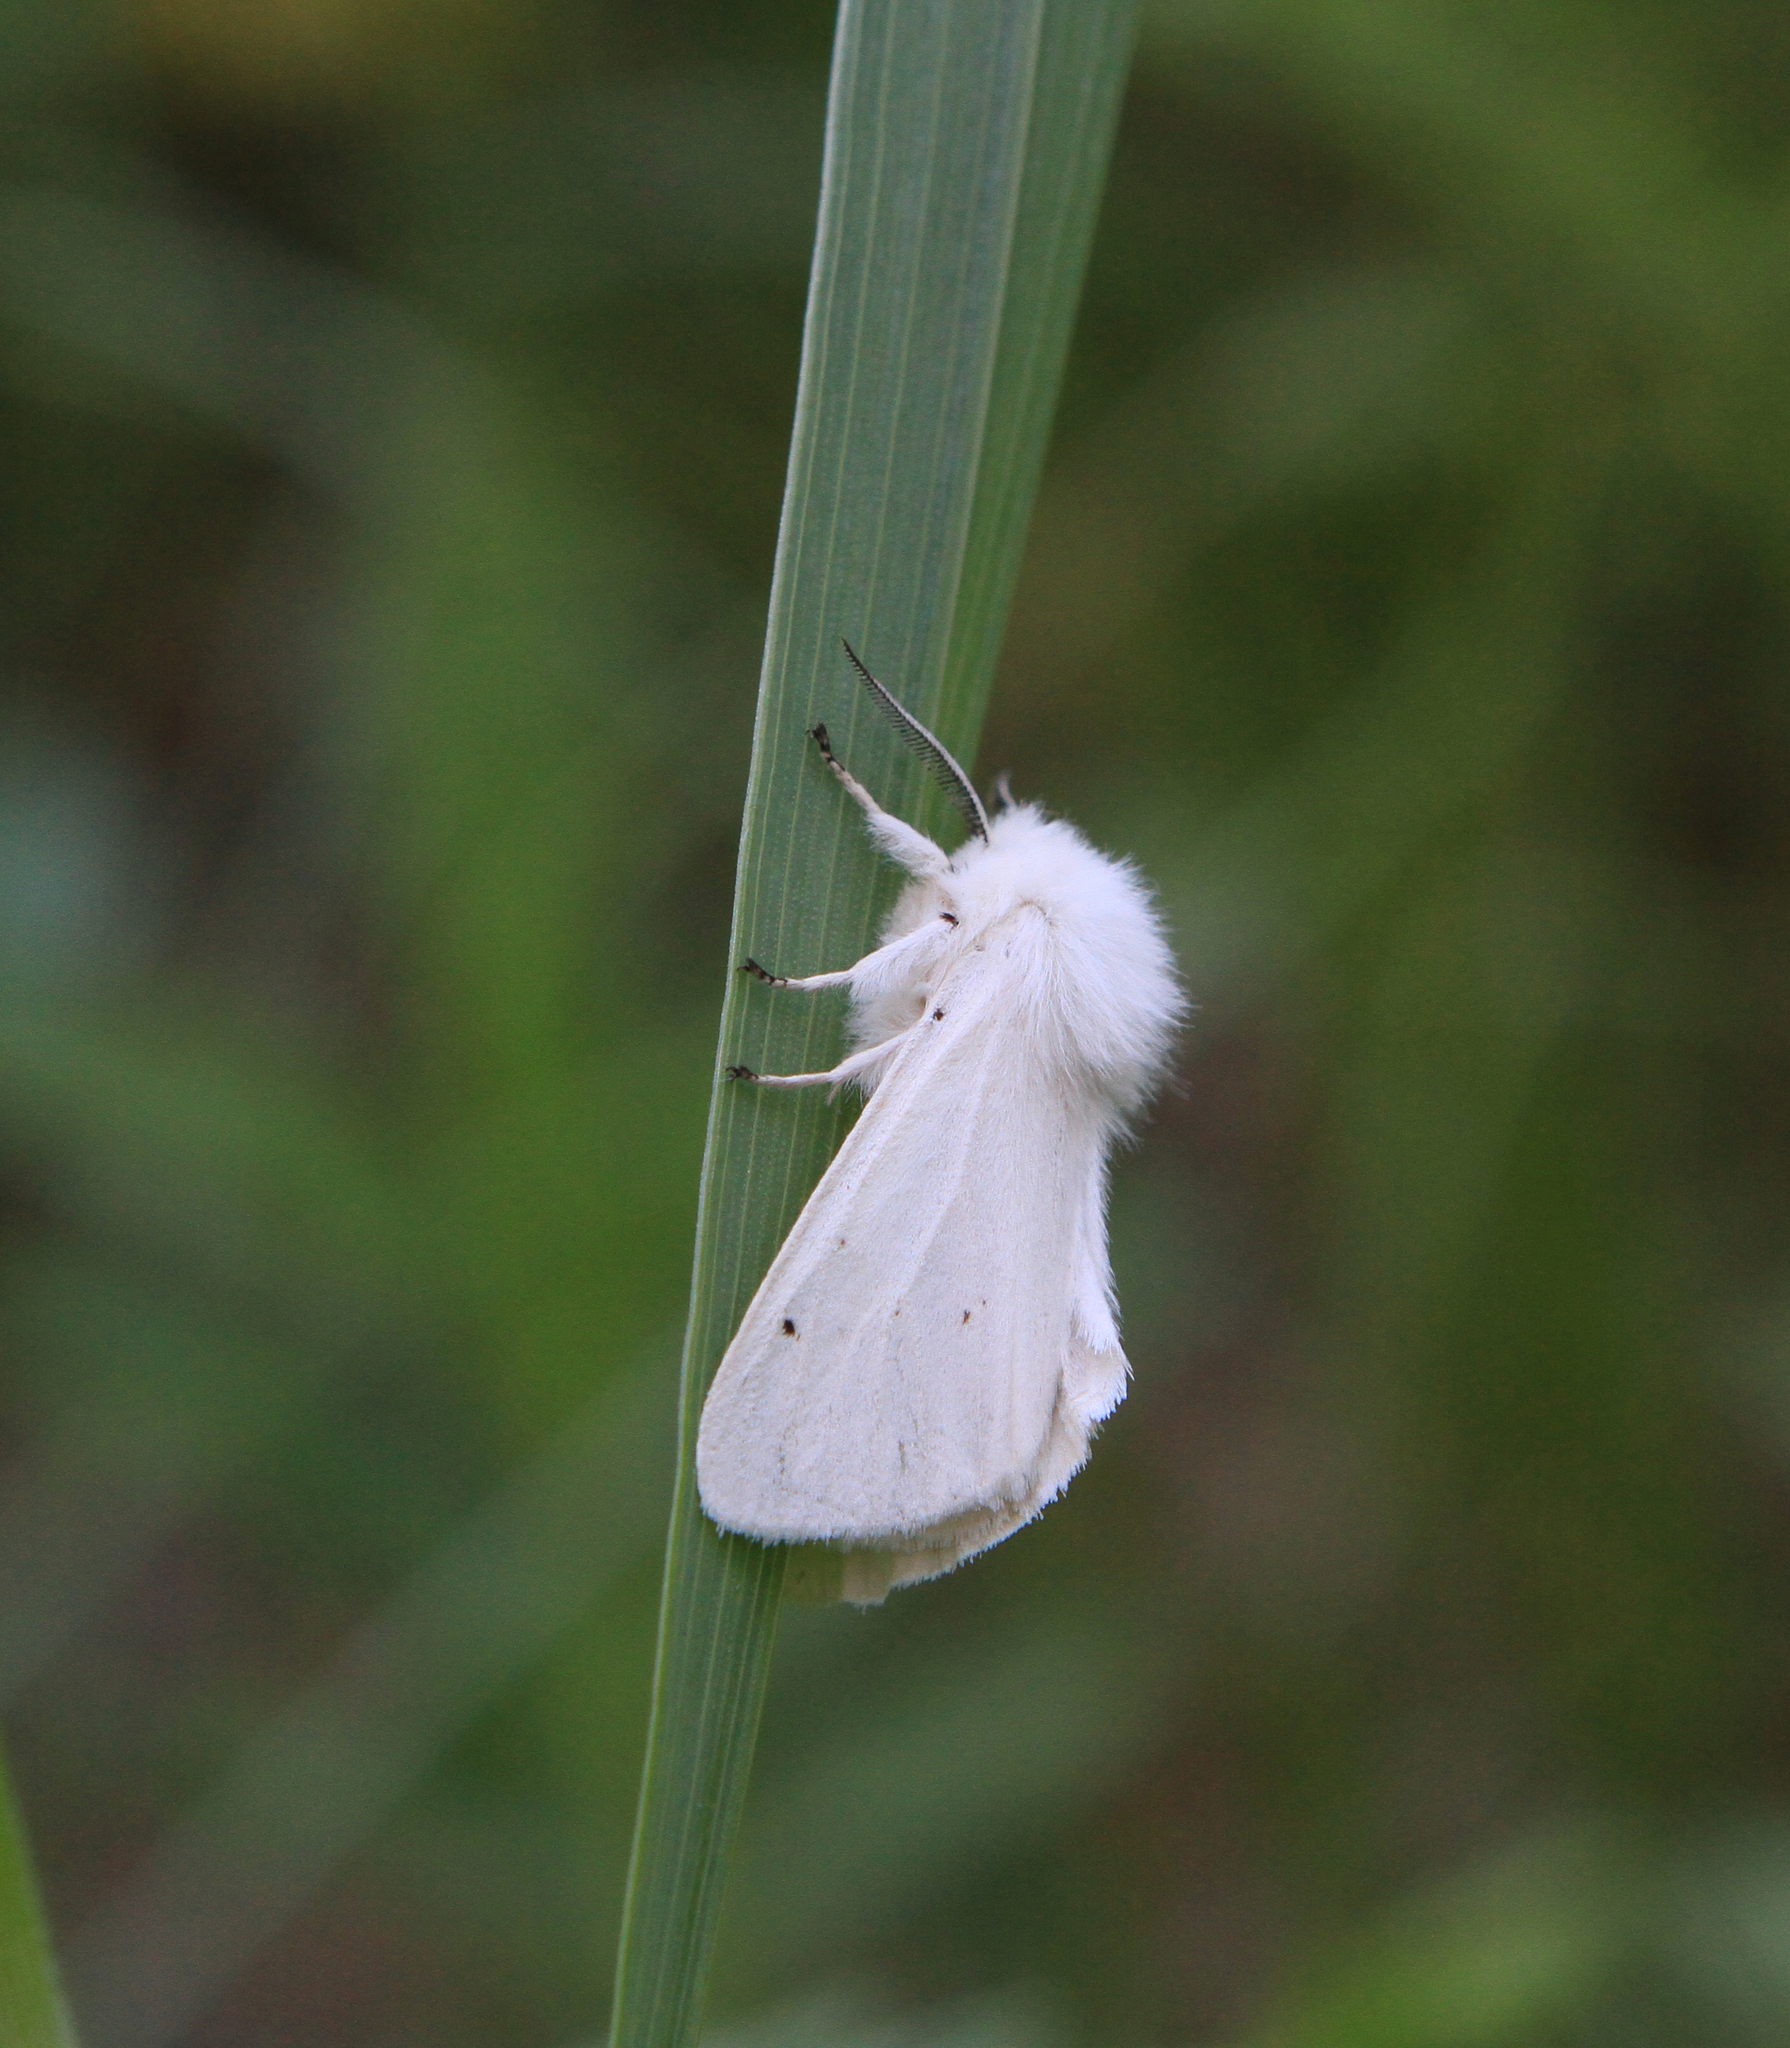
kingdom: Animalia
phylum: Arthropoda
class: Insecta
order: Lepidoptera
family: Erebidae
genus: Spilosoma
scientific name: Spilosoma urticae
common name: Water ermine
